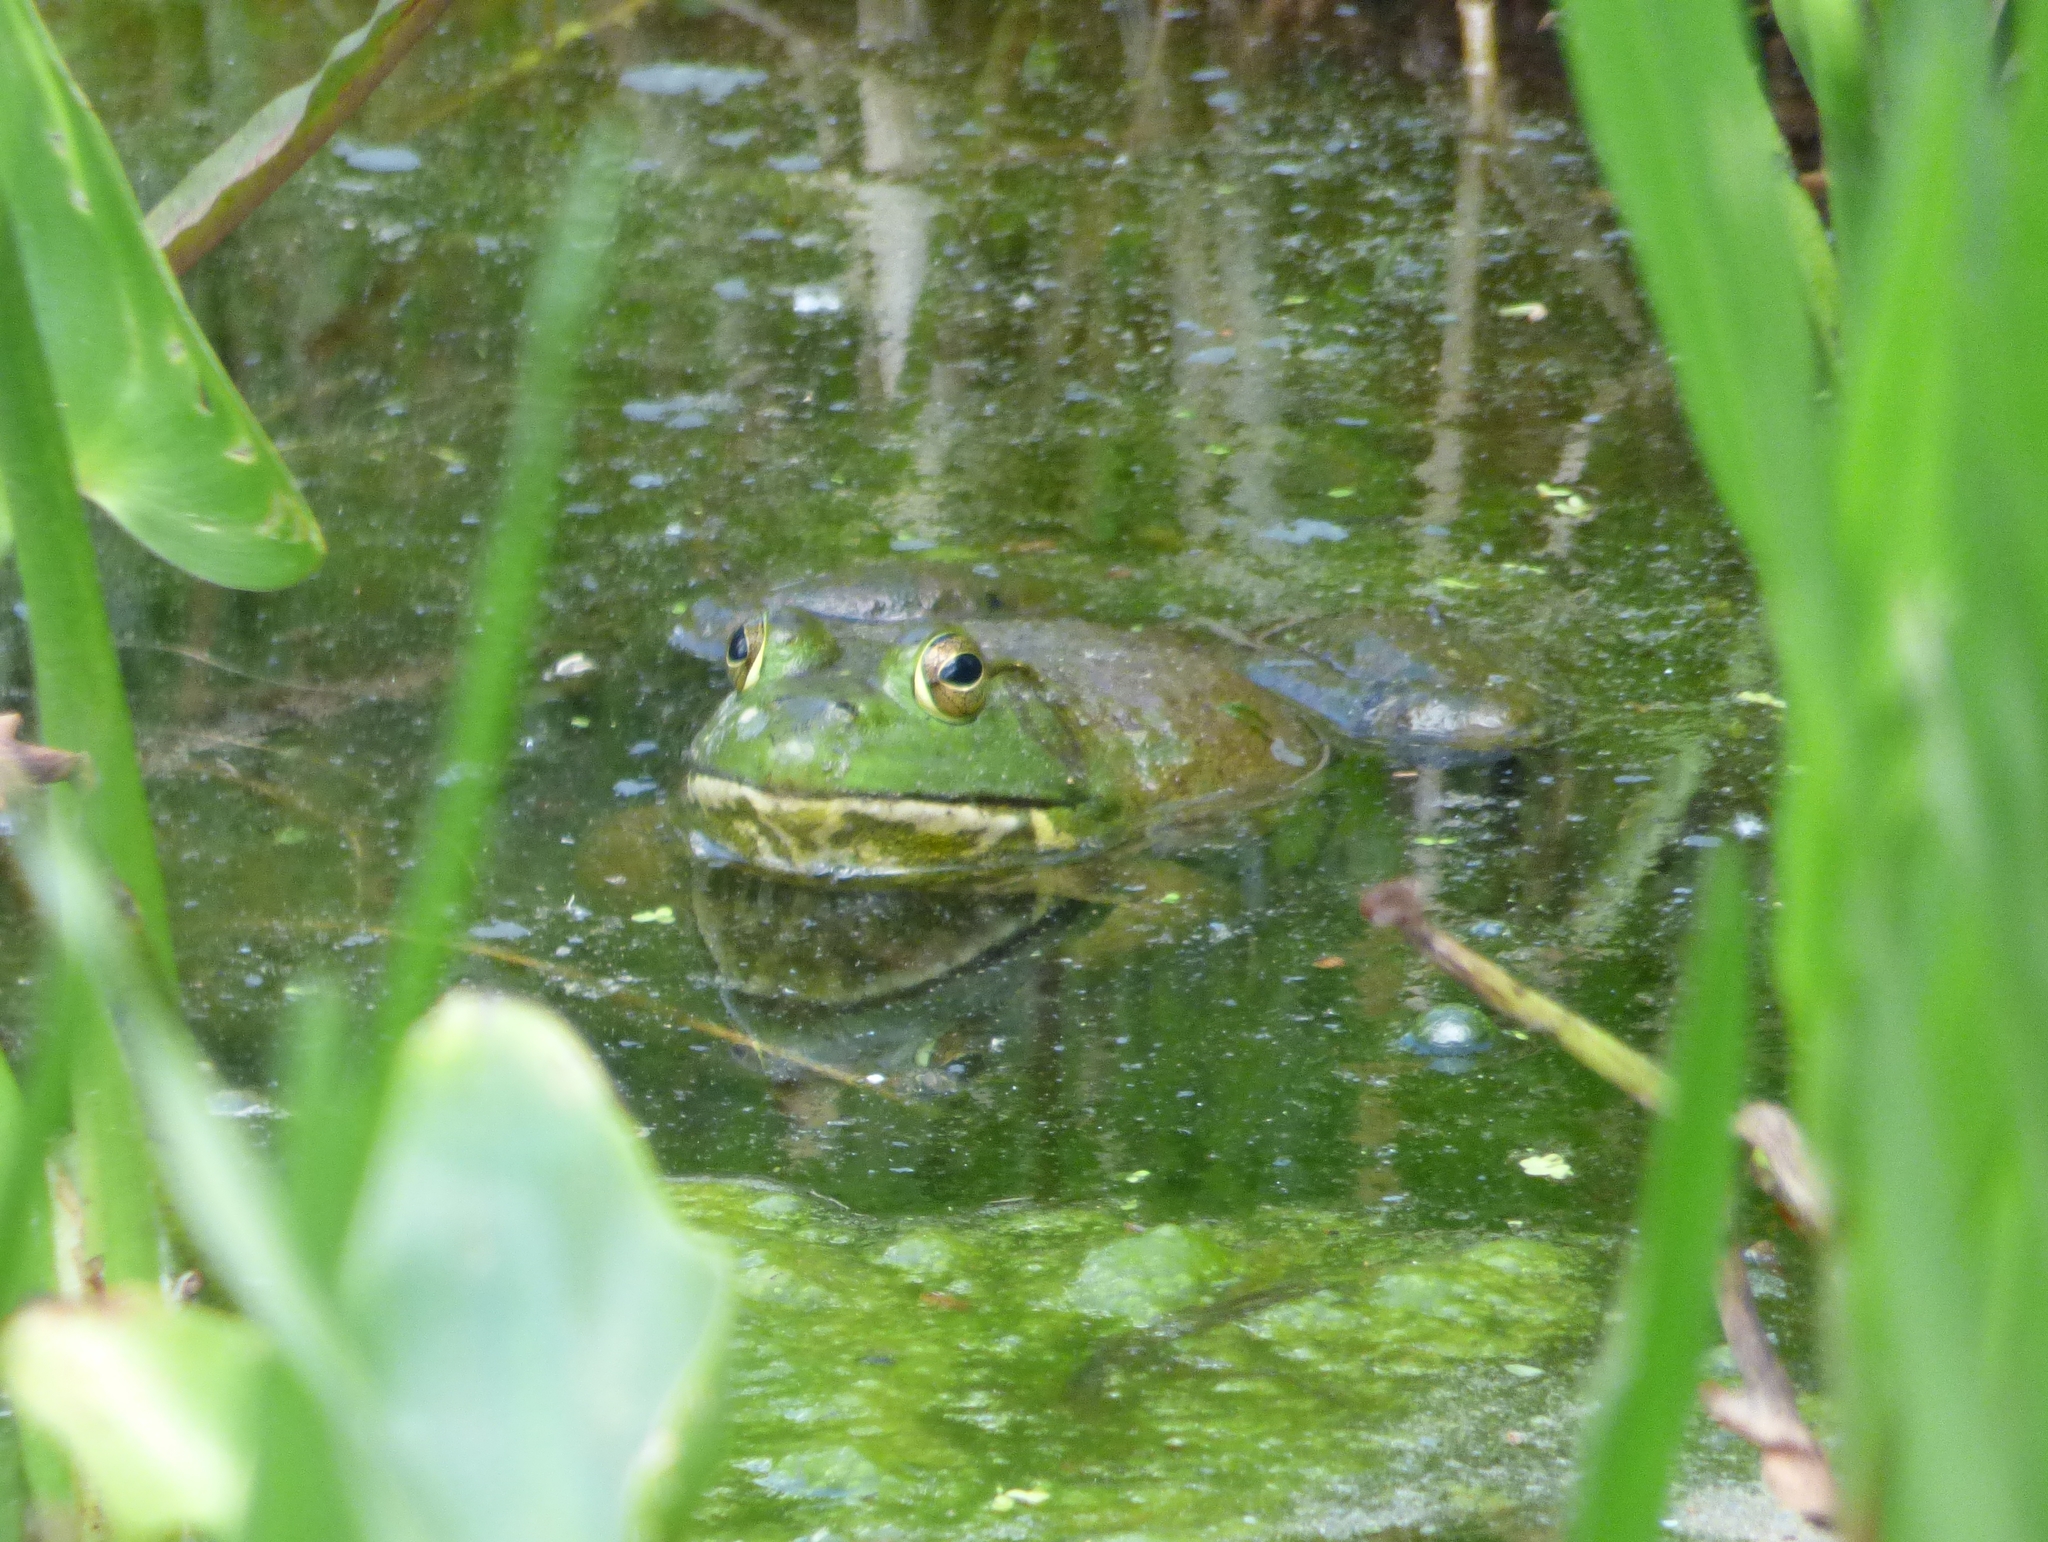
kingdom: Animalia
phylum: Chordata
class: Amphibia
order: Anura
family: Ranidae
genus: Lithobates
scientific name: Lithobates catesbeianus
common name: American bullfrog
